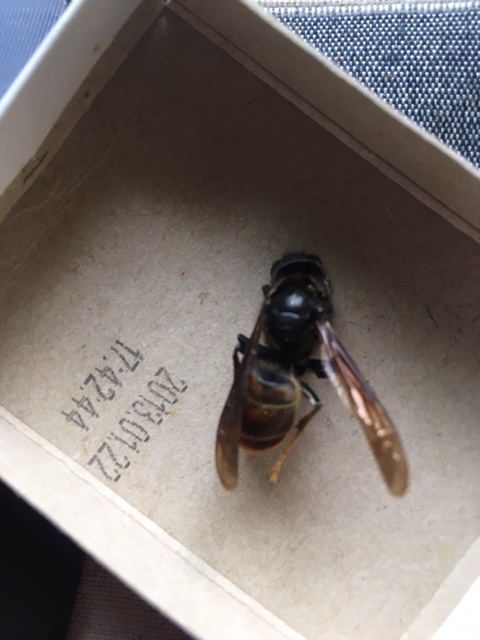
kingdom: Animalia
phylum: Arthropoda
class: Insecta
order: Hymenoptera
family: Vespidae
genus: Vespa
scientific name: Vespa velutina
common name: Asian hornet
